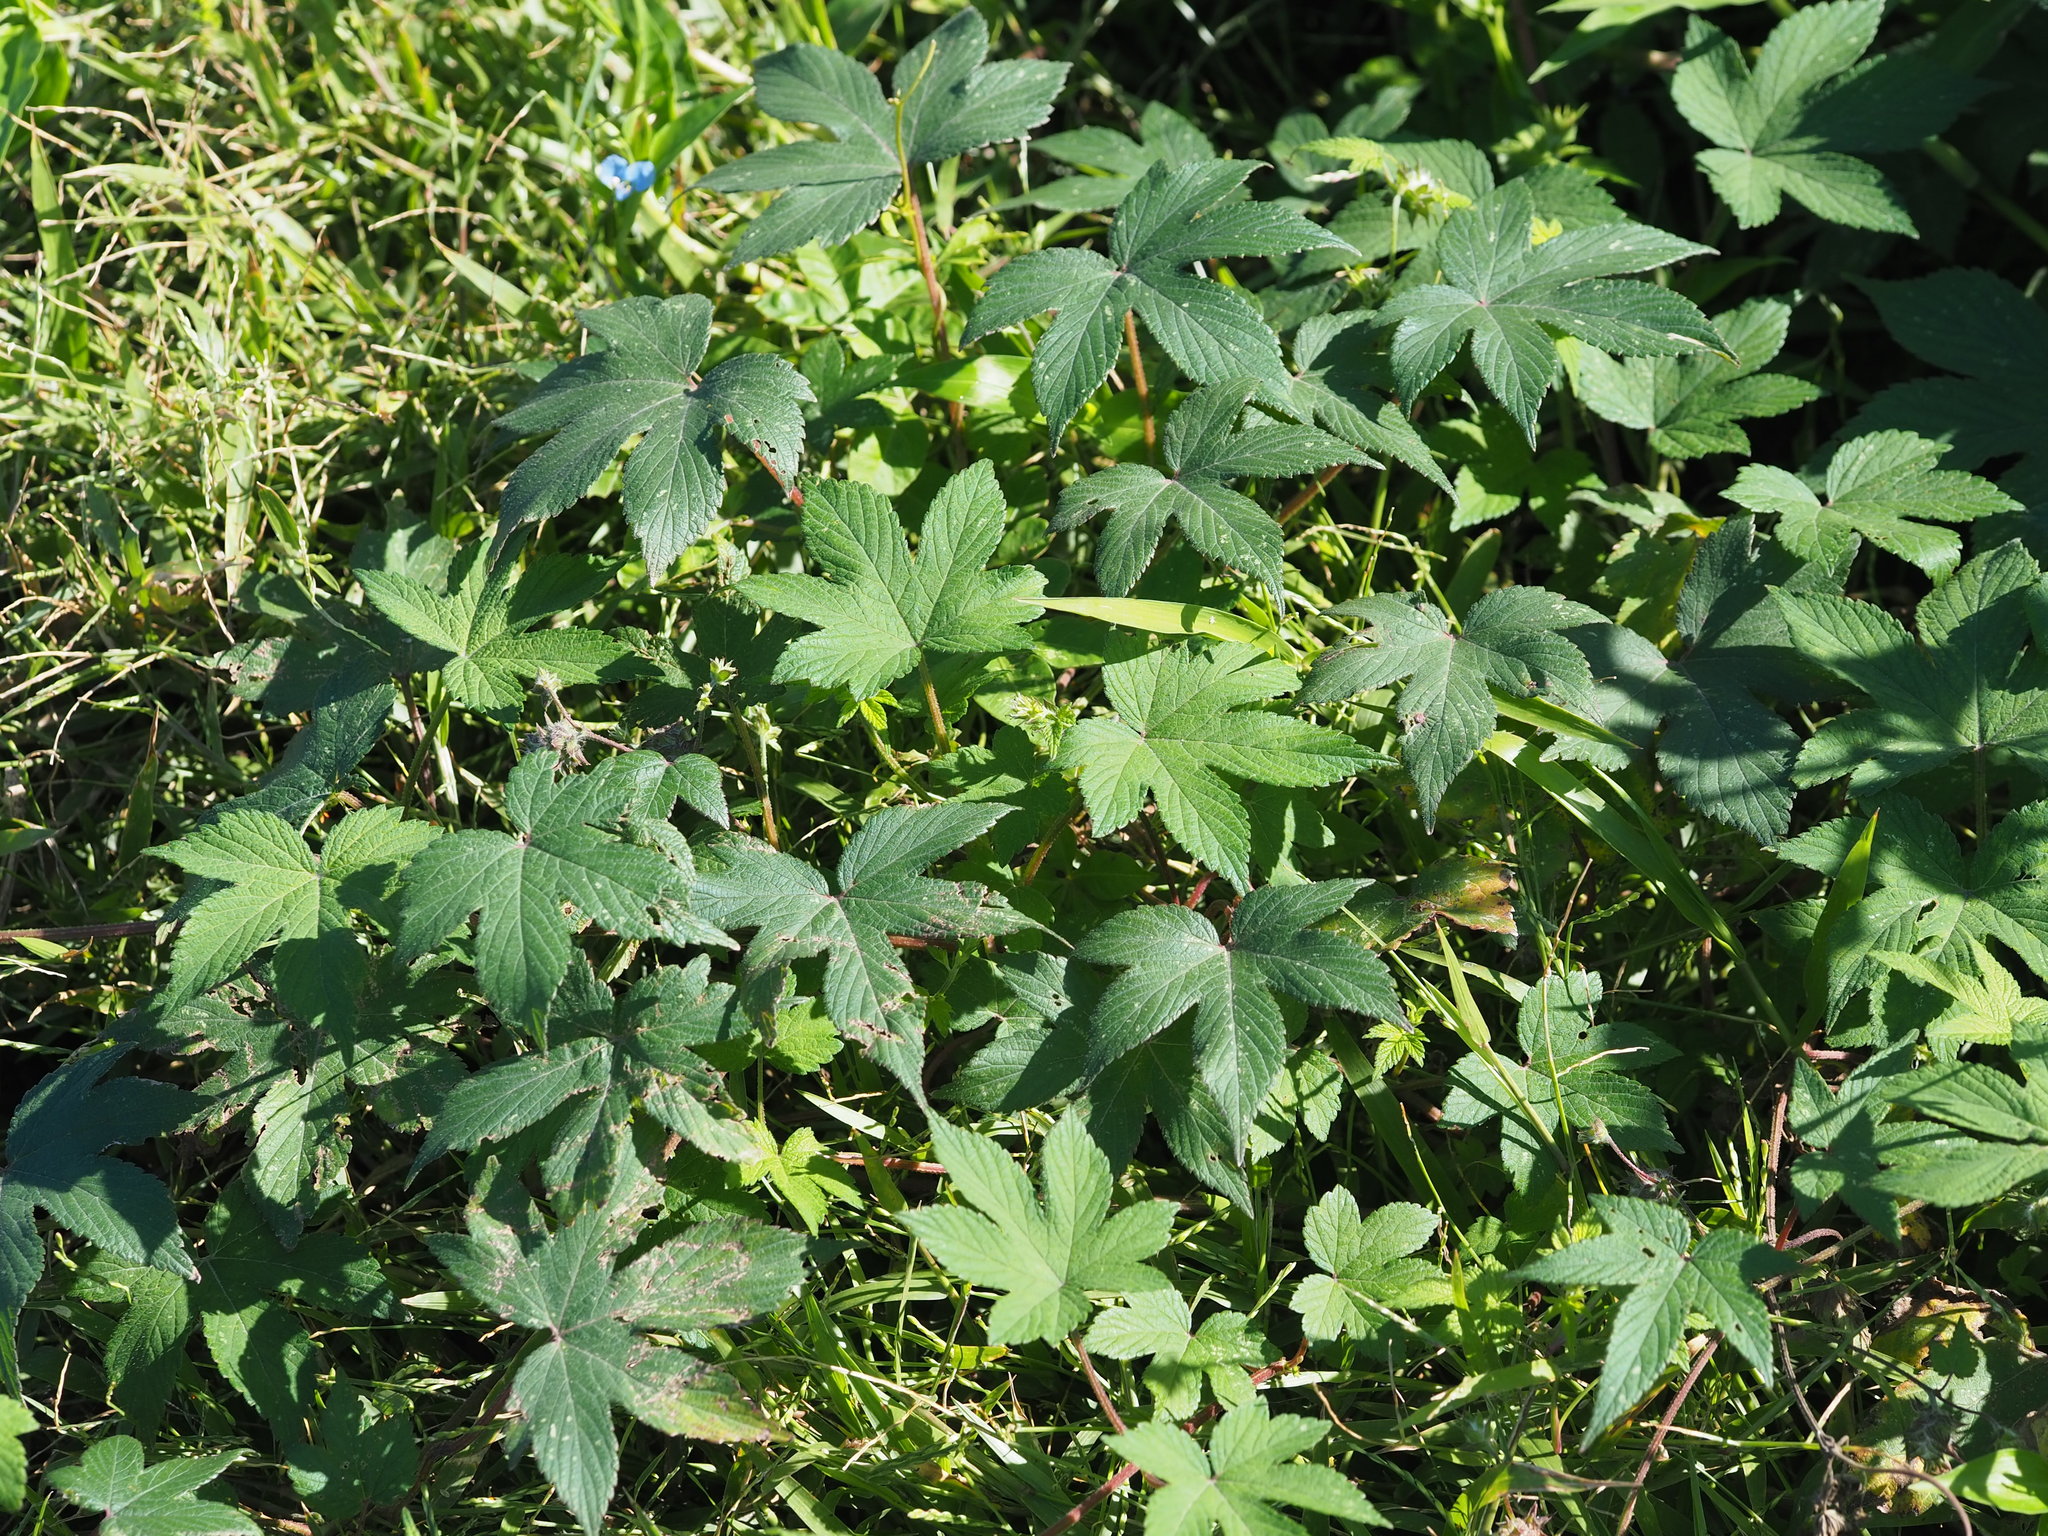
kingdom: Plantae
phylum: Tracheophyta
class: Magnoliopsida
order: Rosales
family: Cannabaceae
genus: Humulus
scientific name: Humulus scandens
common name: Japanese hop
